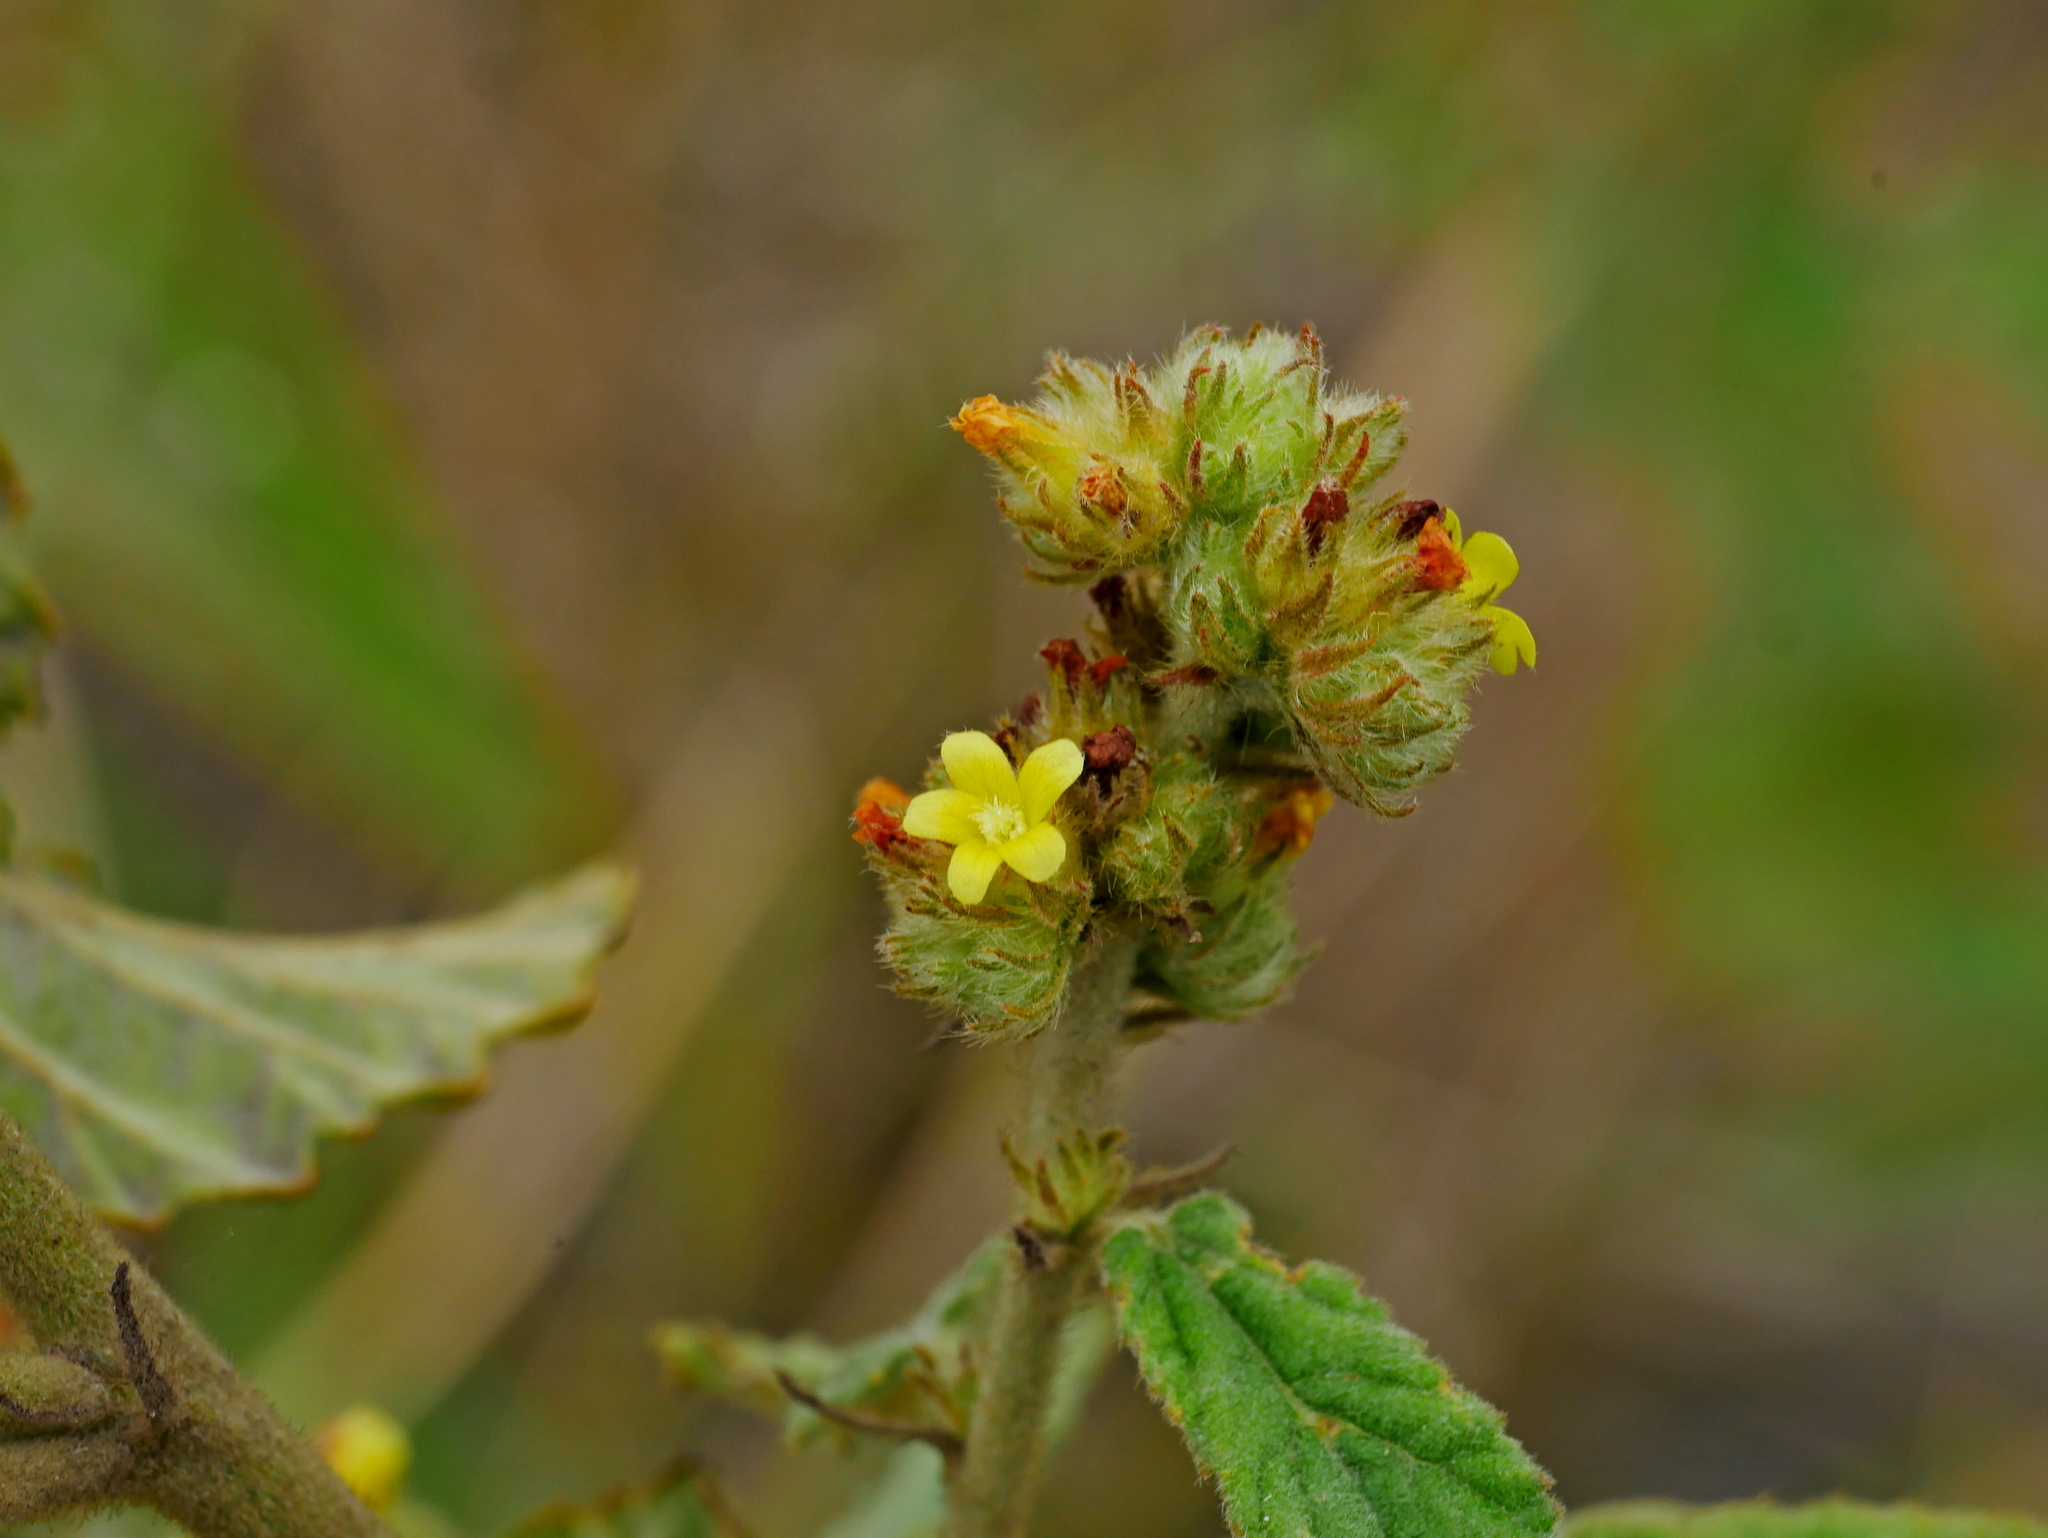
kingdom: Plantae
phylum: Tracheophyta
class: Magnoliopsida
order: Malvales
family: Malvaceae
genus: Waltheria
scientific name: Waltheria indica
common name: Leather-coat
